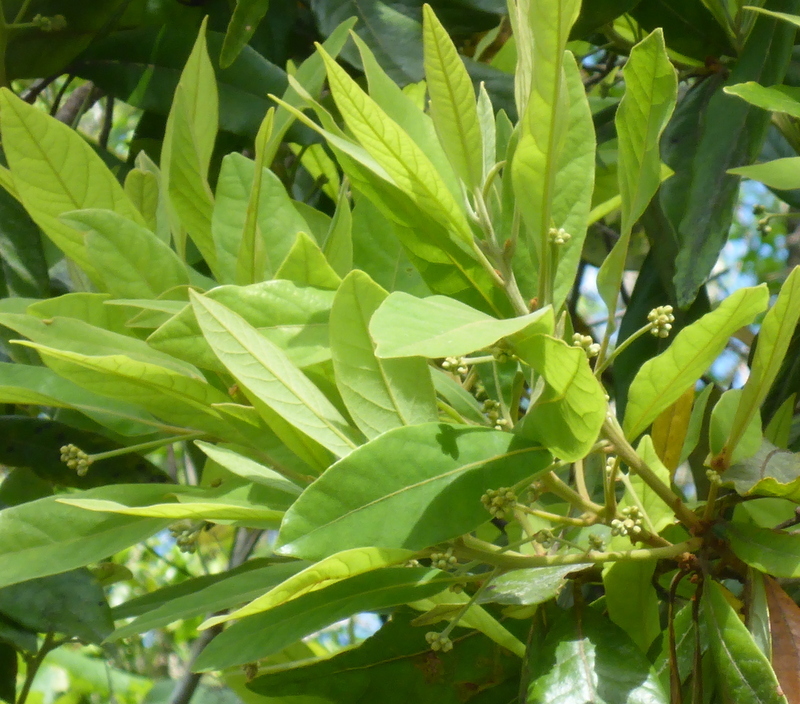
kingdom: Plantae
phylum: Tracheophyta
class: Magnoliopsida
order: Laurales
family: Lauraceae
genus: Persea
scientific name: Persea palustris
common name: Swampbay
